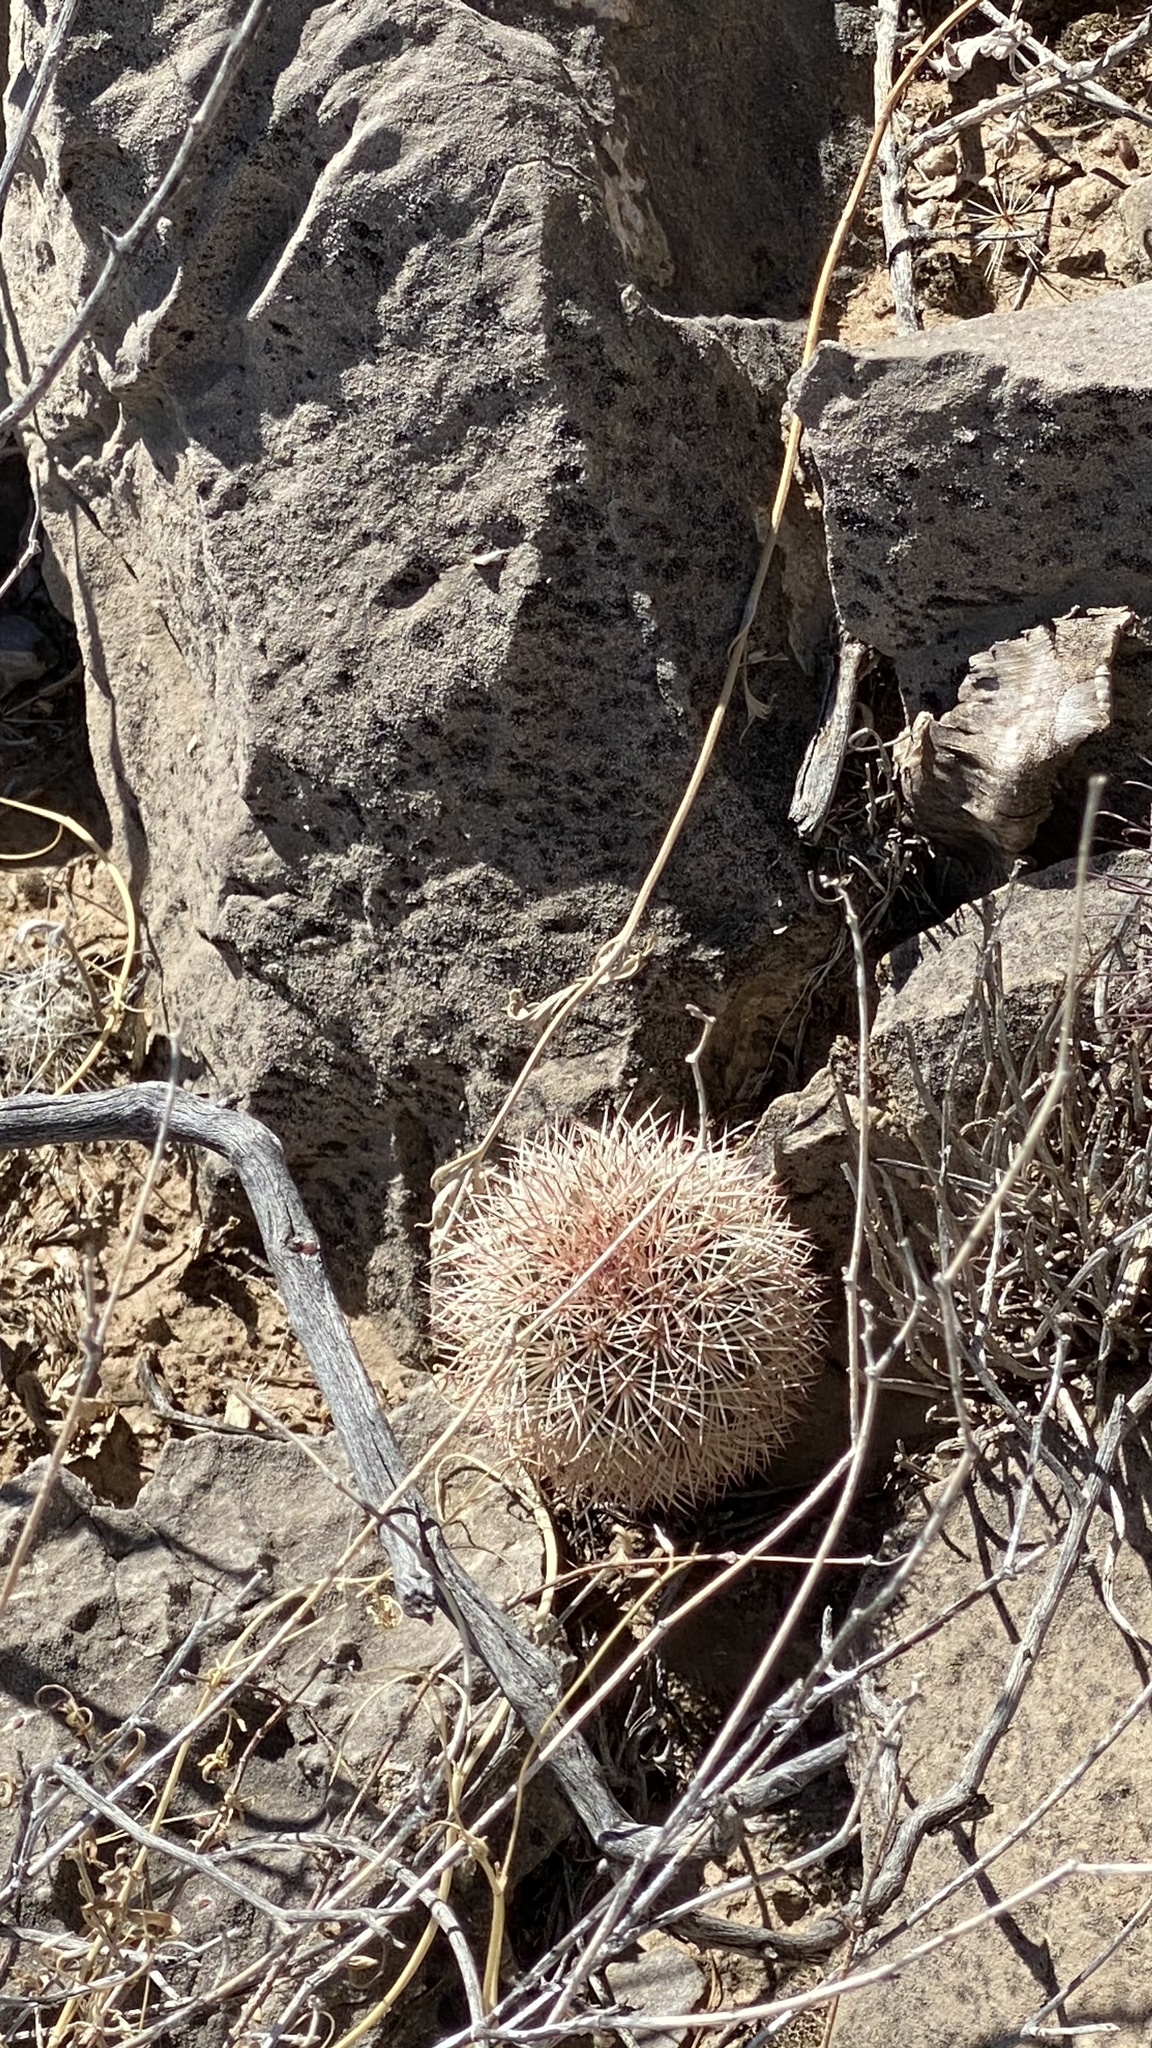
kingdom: Plantae
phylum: Tracheophyta
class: Magnoliopsida
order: Caryophyllales
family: Cactaceae
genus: Echinocereus
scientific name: Echinocereus dasyacanthus
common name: Spiny hedgehog cactus
